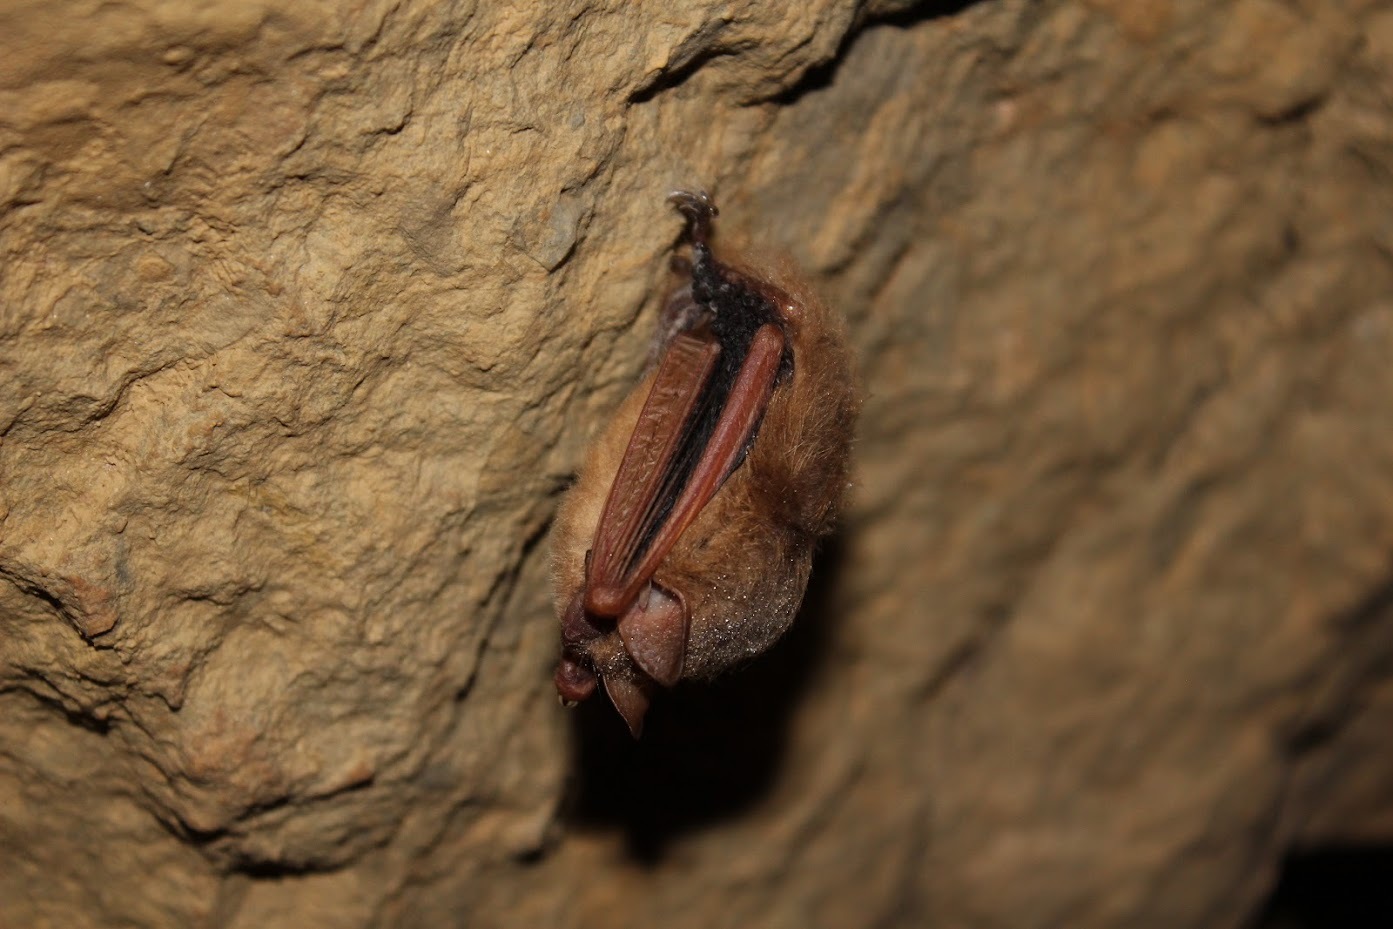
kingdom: Animalia
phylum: Chordata
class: Mammalia
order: Chiroptera
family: Vespertilionidae
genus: Perimyotis
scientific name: Perimyotis subflavus
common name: Eastern pipistrelle
